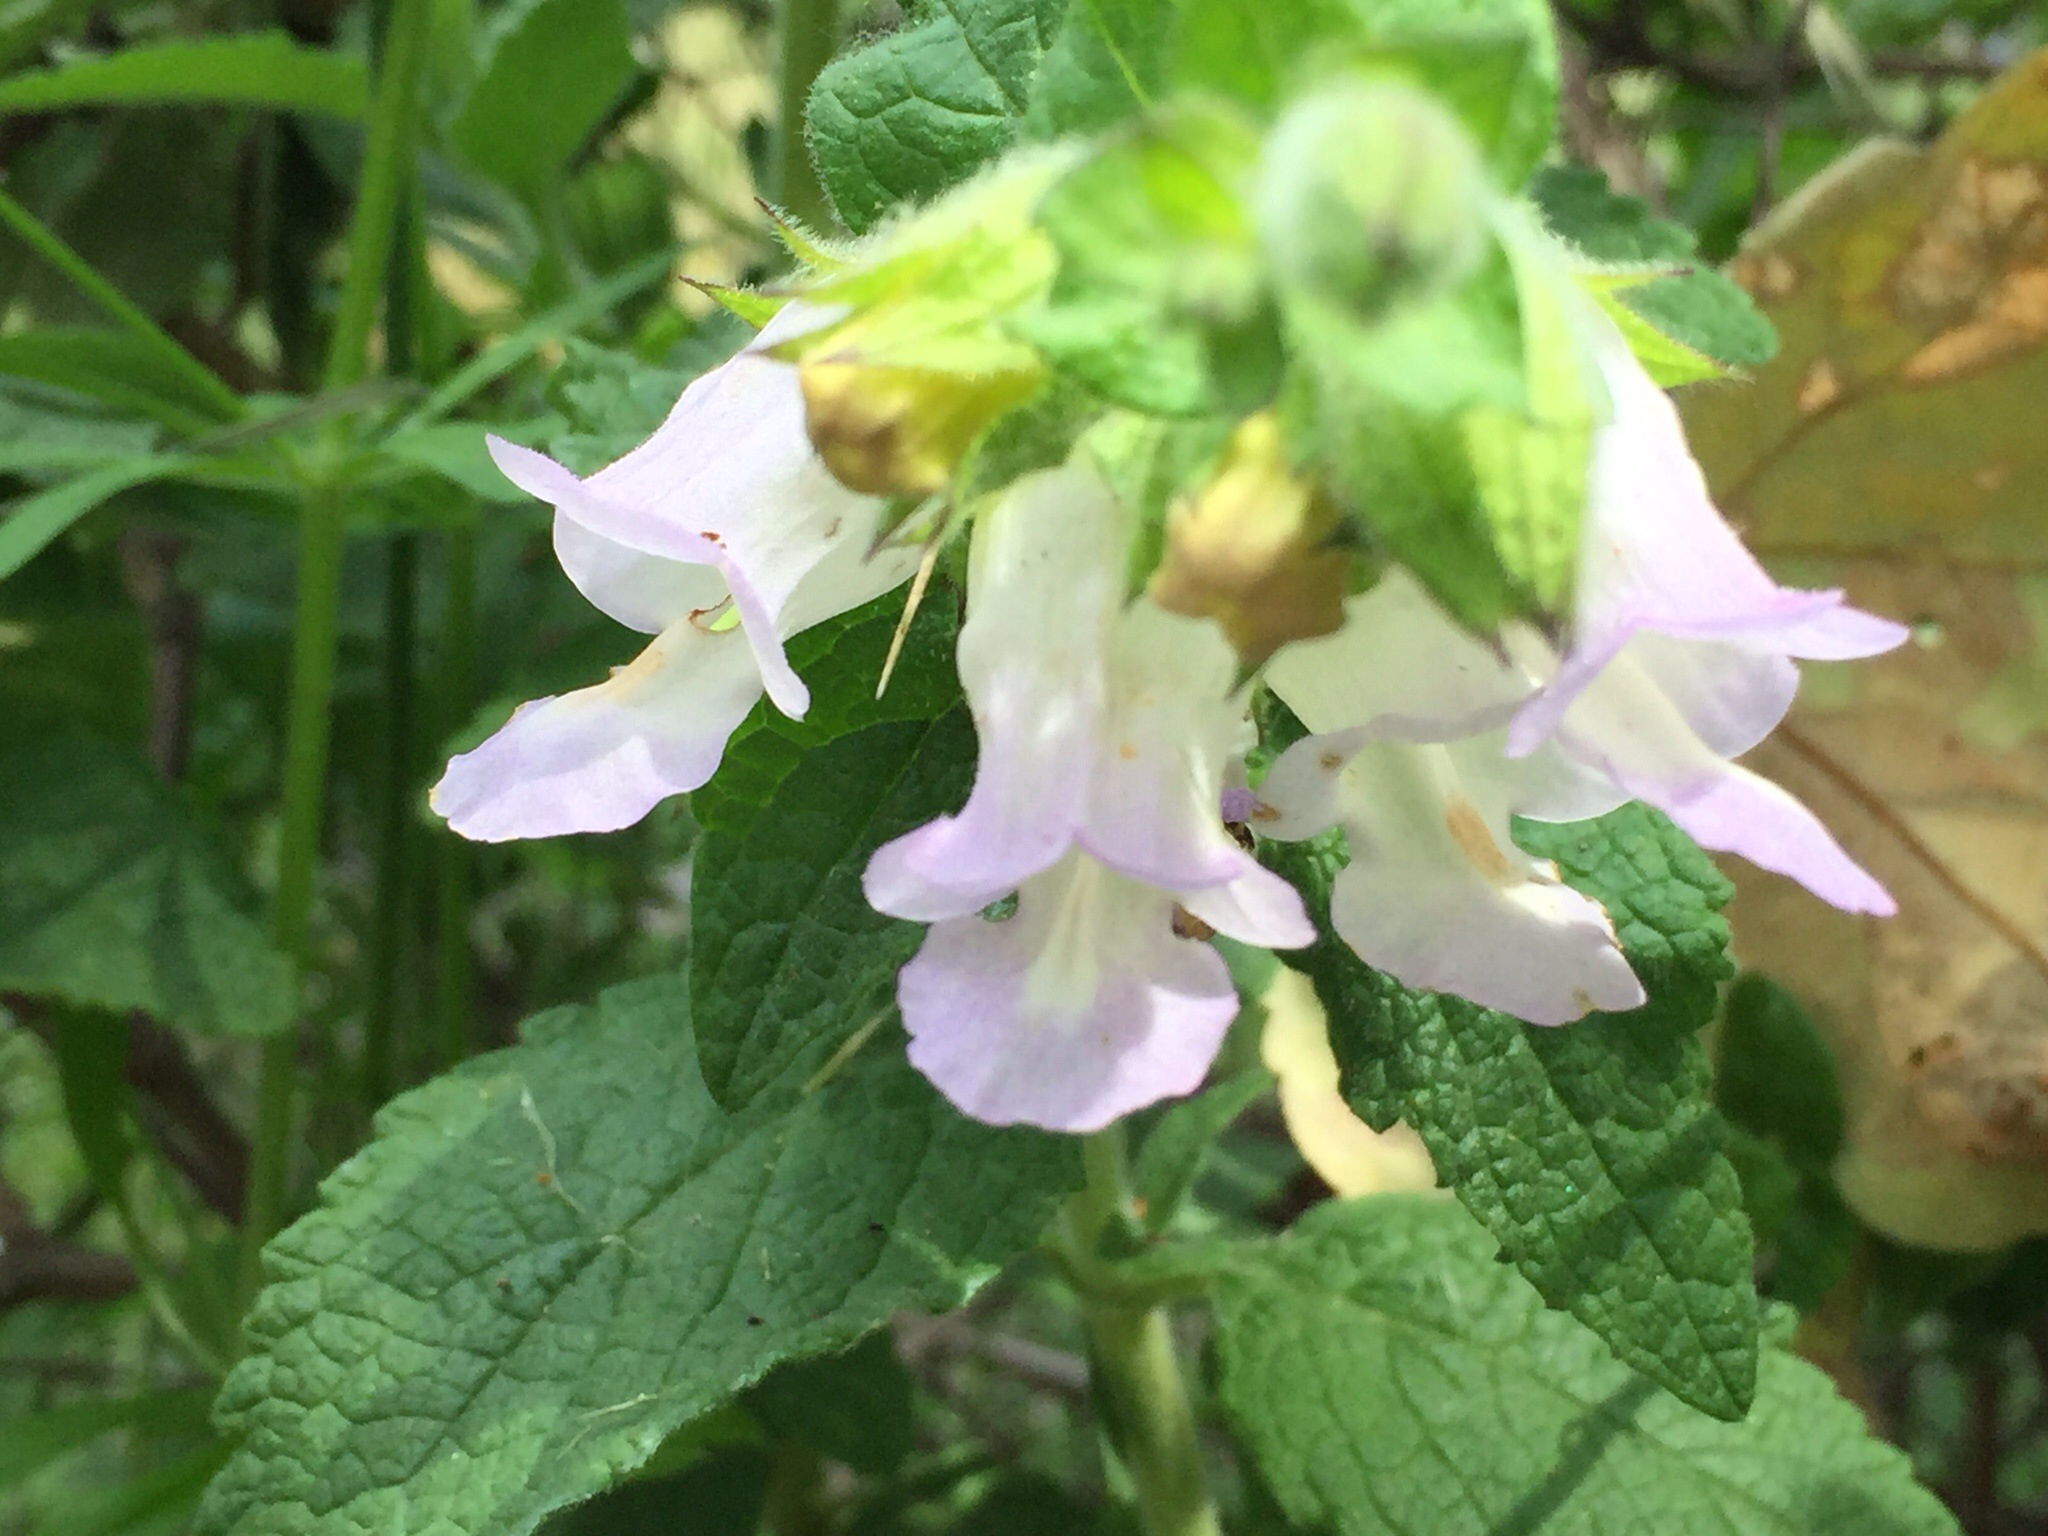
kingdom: Plantae
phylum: Tracheophyta
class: Magnoliopsida
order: Lamiales
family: Lamiaceae
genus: Lepechinia
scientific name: Lepechinia calycina
